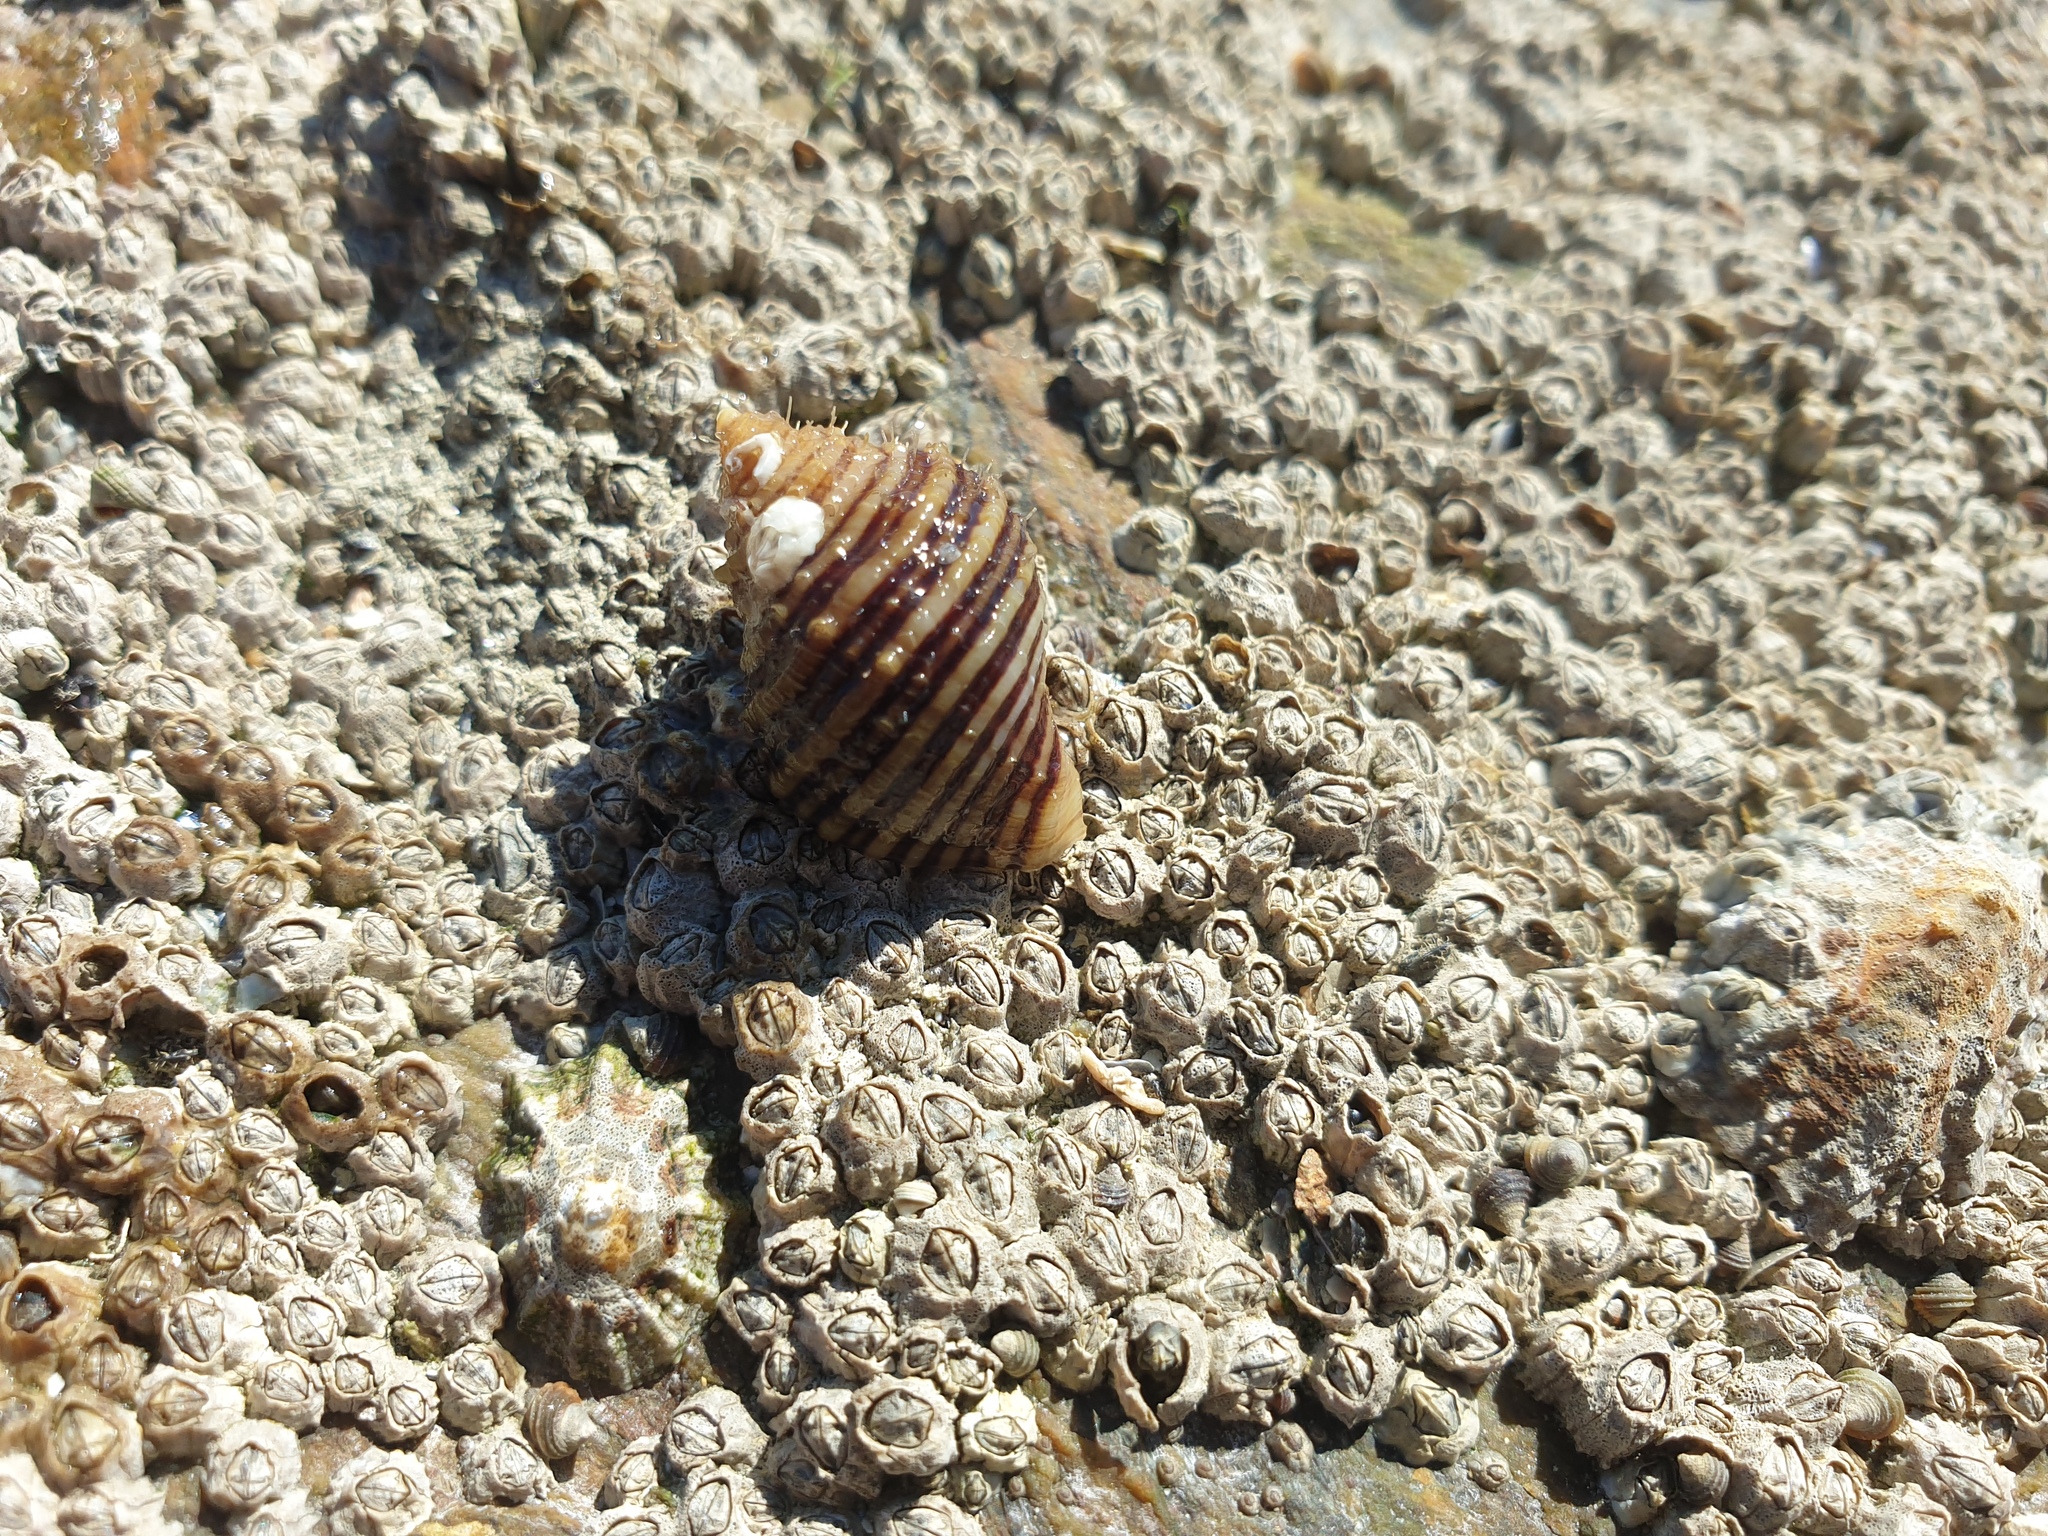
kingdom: Animalia
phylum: Mollusca
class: Gastropoda
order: Neogastropoda
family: Muricidae
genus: Nucella
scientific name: Nucella lapillus
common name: Dog whelk
